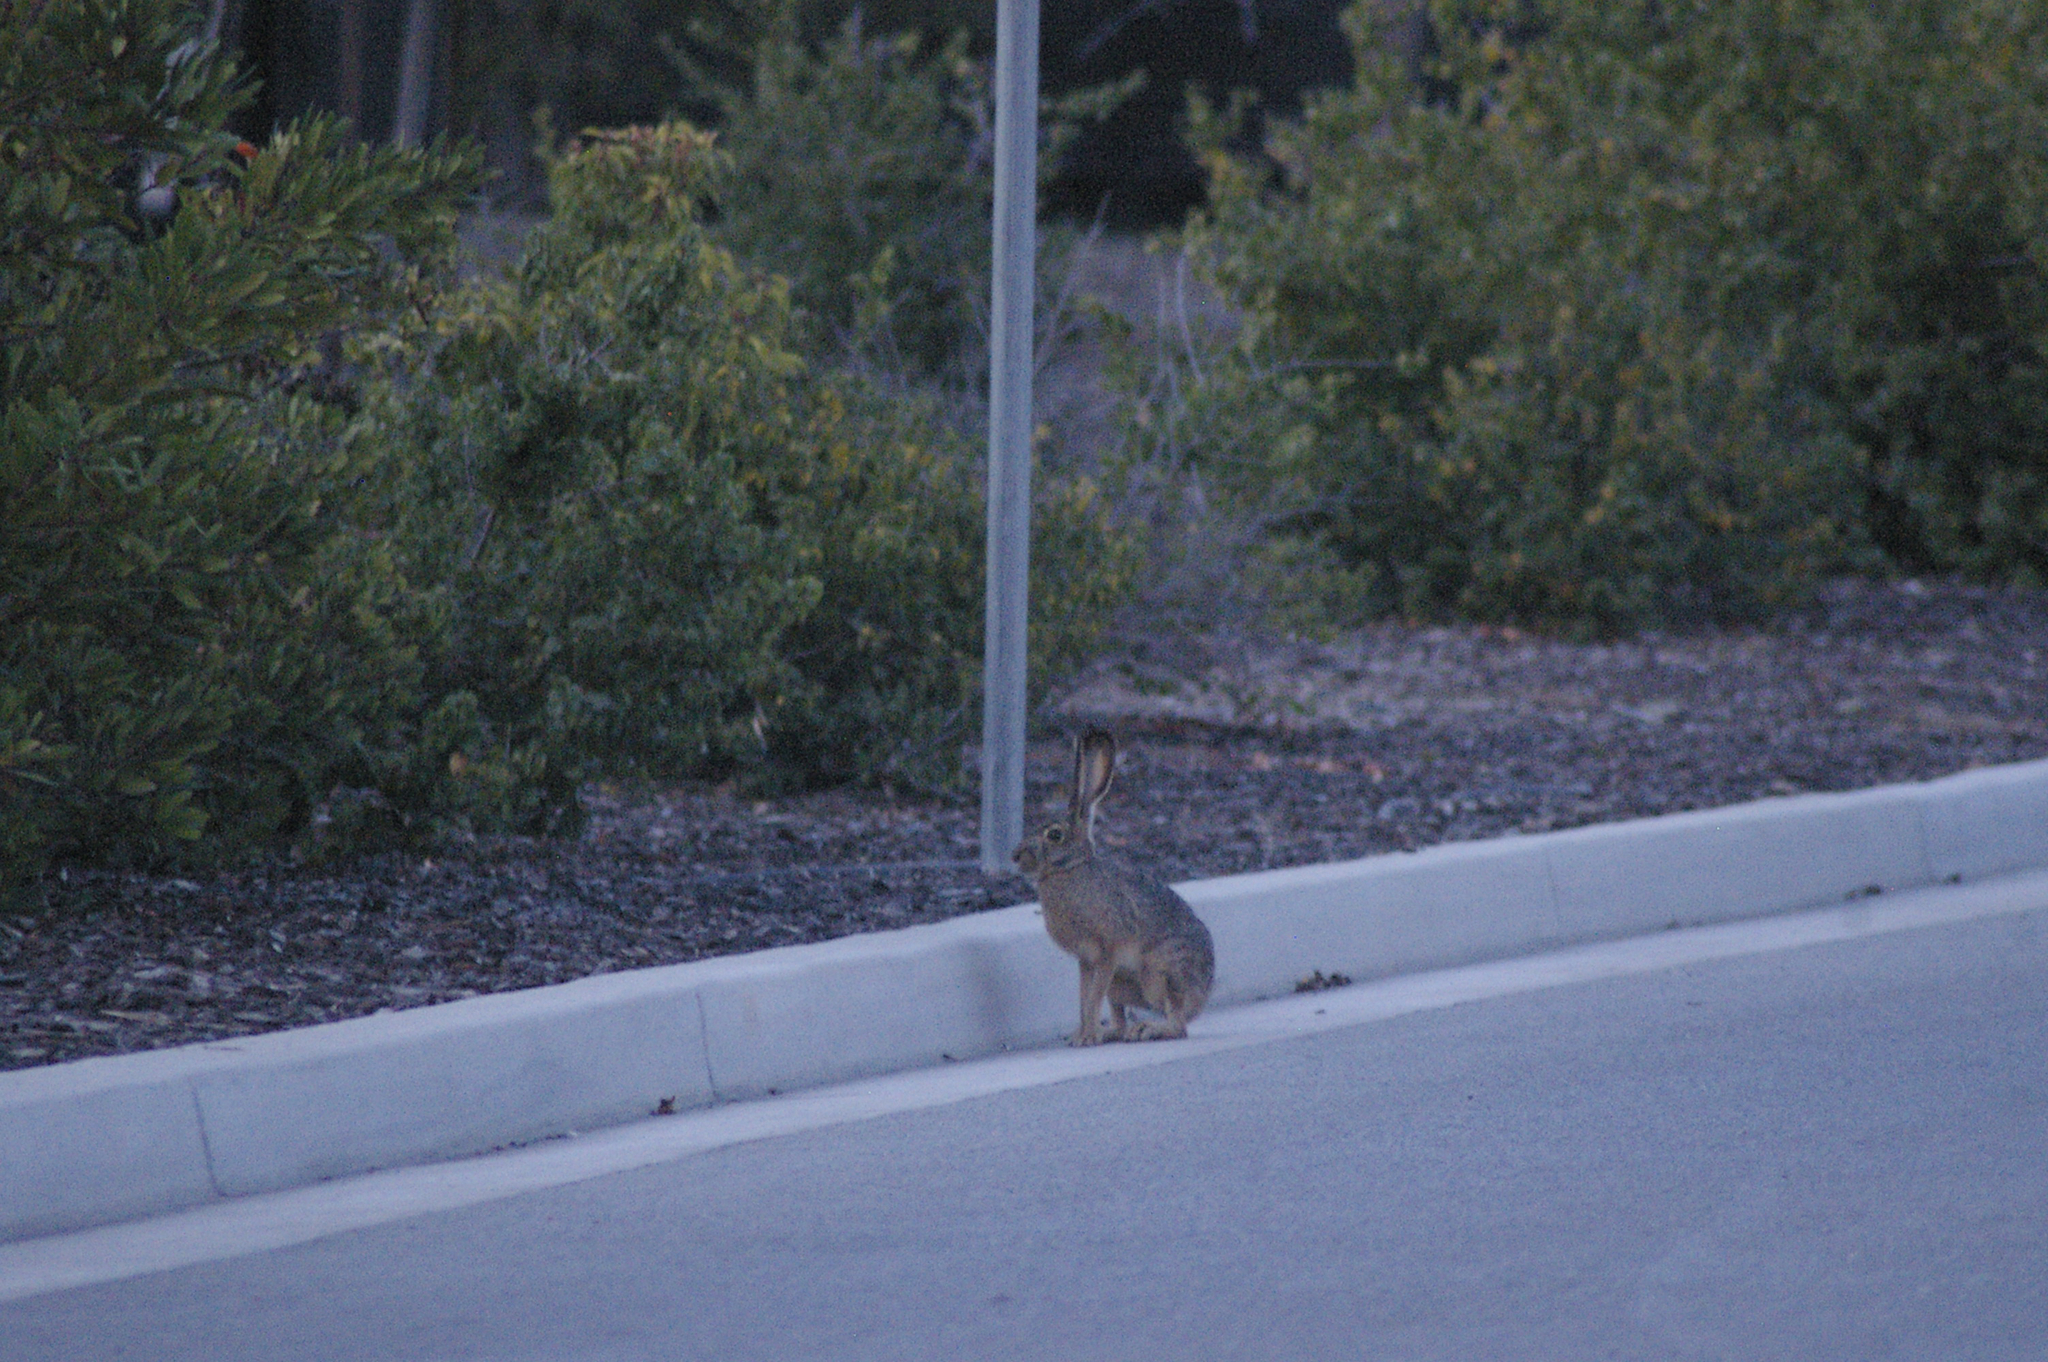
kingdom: Animalia
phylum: Chordata
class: Mammalia
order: Lagomorpha
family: Leporidae
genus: Lepus
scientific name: Lepus californicus
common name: Black-tailed jackrabbit
